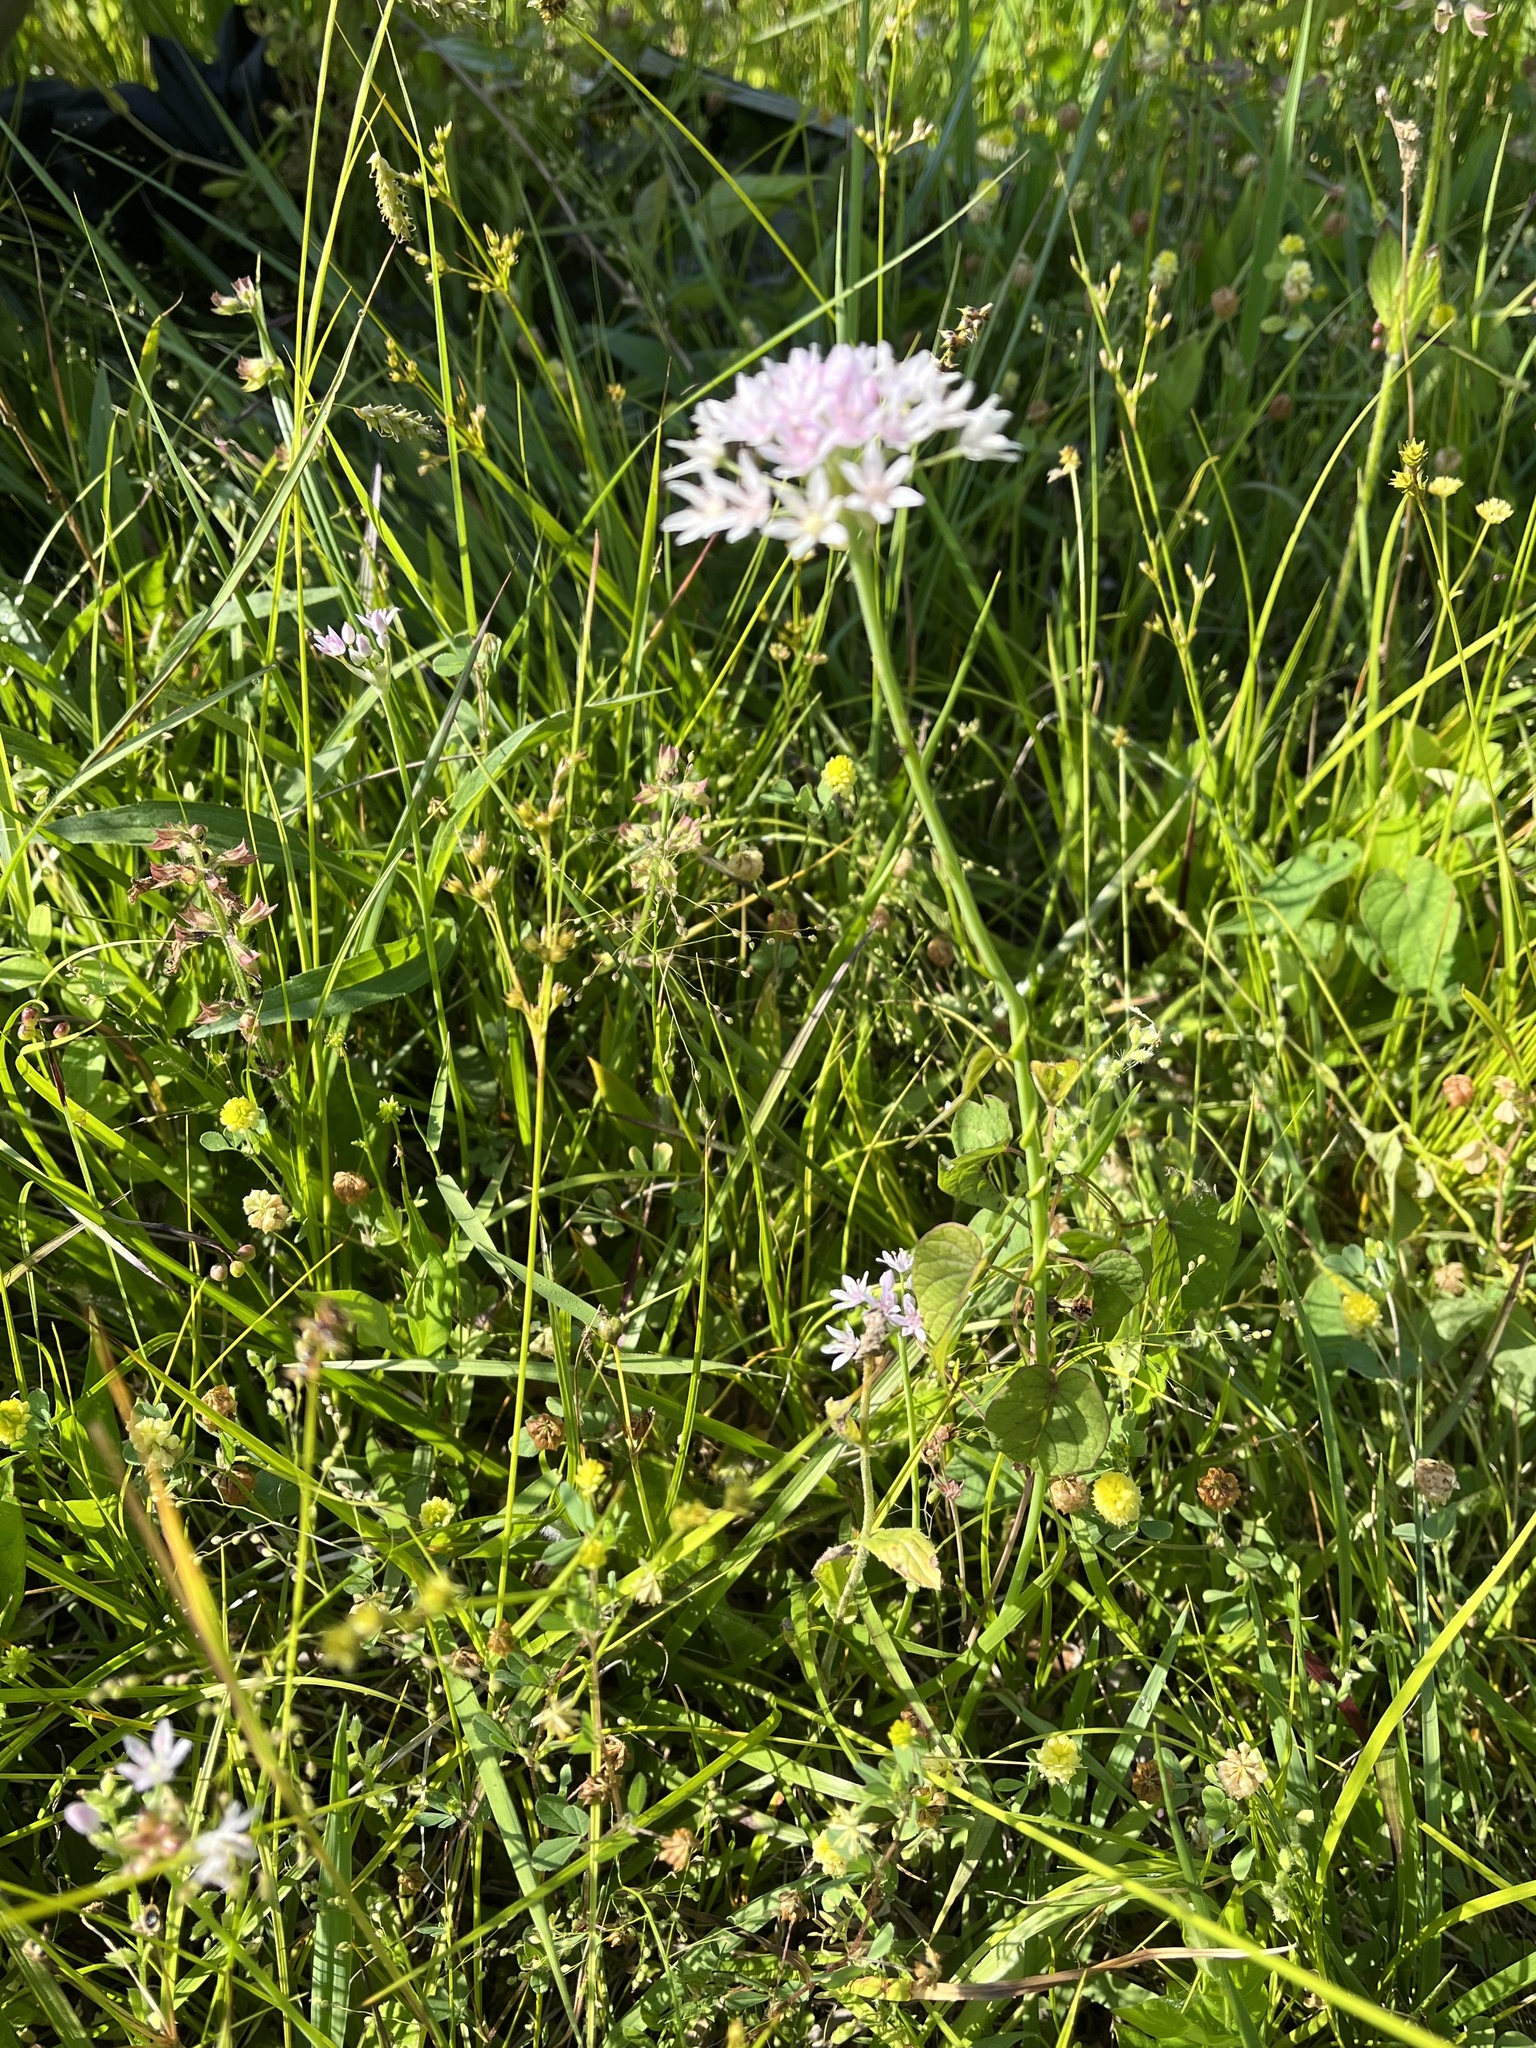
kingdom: Plantae
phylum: Tracheophyta
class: Liliopsida
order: Asparagales
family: Amaryllidaceae
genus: Allium
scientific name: Allium canadense
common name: Meadow garlic
